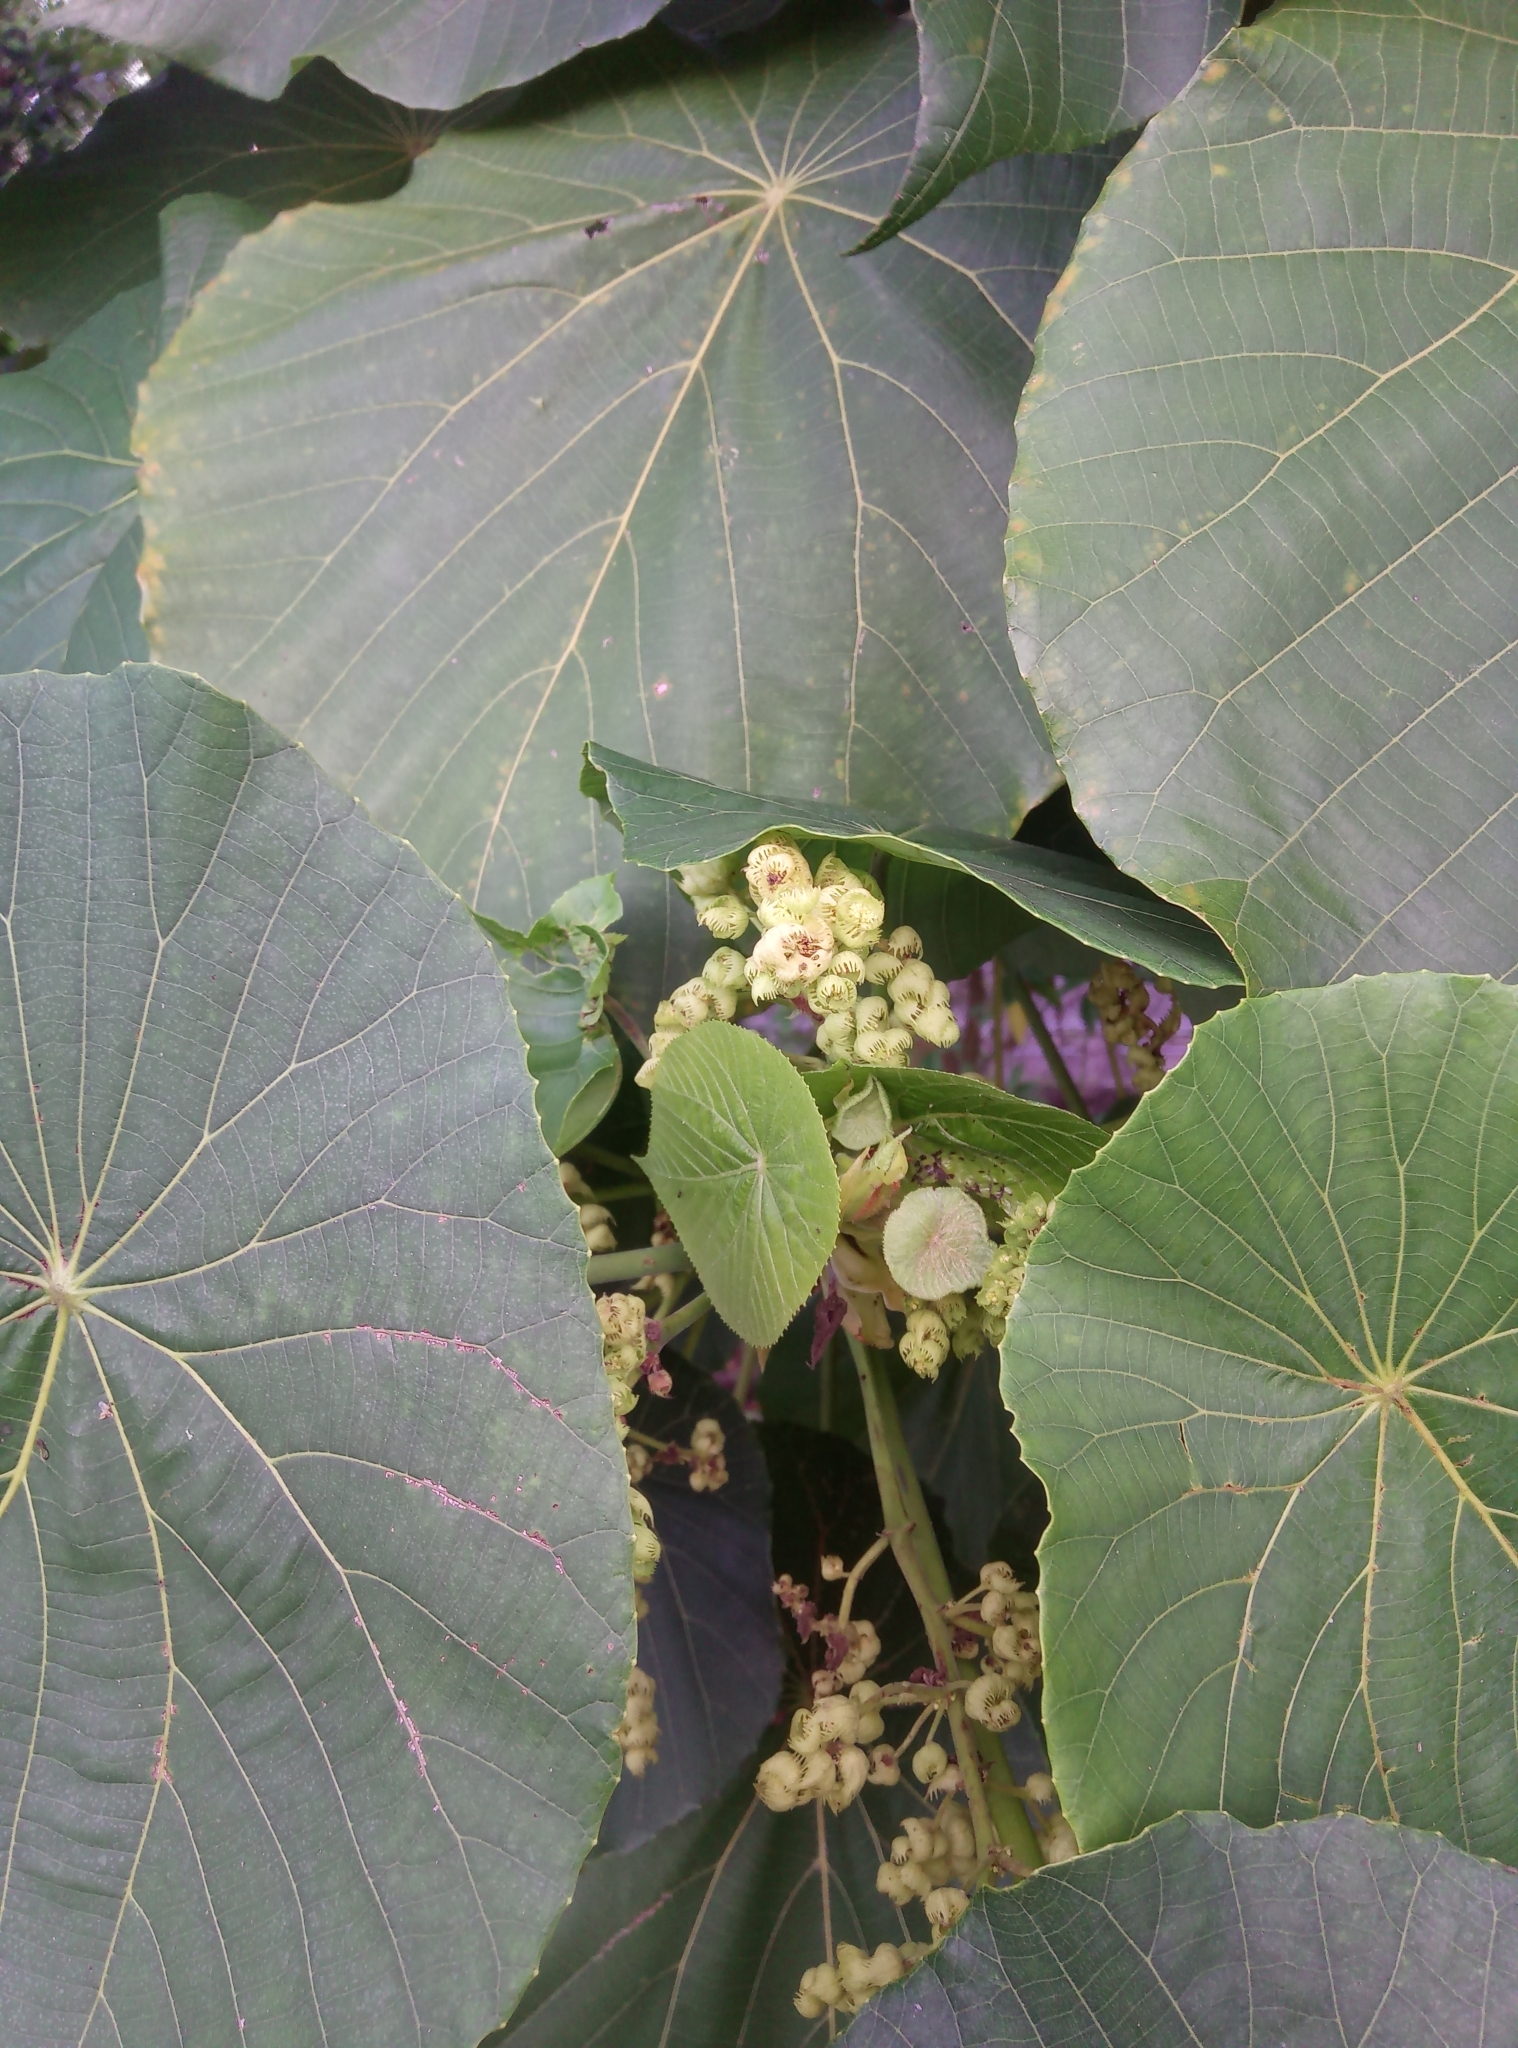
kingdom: Plantae
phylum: Tracheophyta
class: Magnoliopsida
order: Malpighiales
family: Euphorbiaceae
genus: Macaranga
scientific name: Macaranga tanarius
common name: Parasol leaf tree
